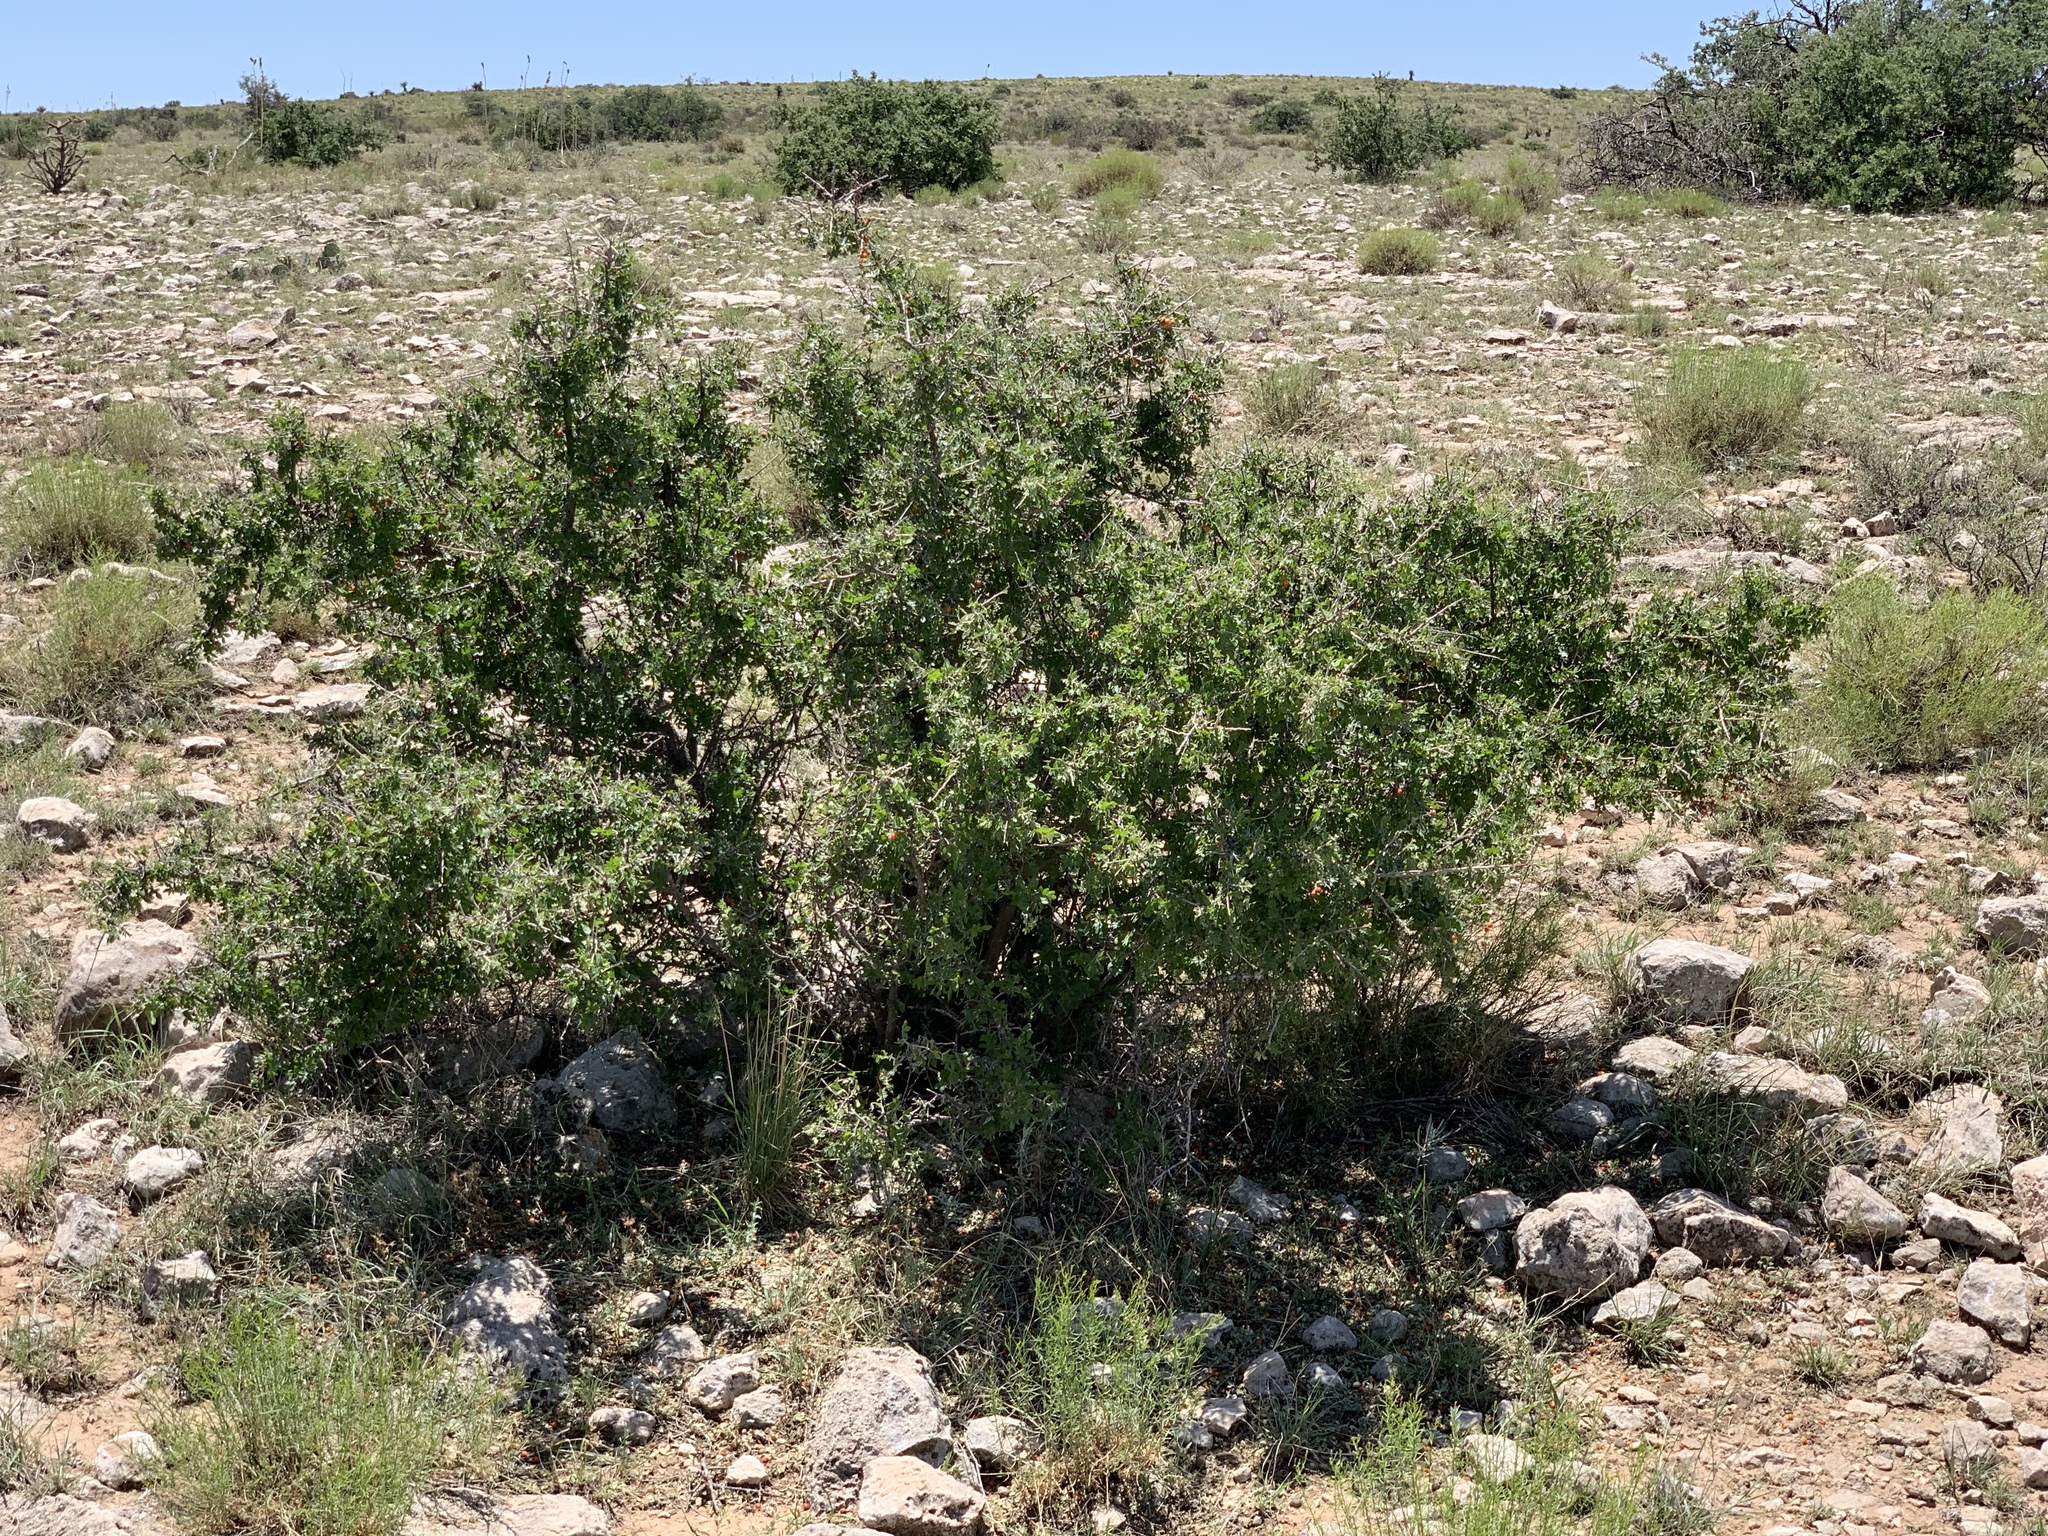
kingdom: Plantae
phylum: Tracheophyta
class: Magnoliopsida
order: Sapindales
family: Anacardiaceae
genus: Rhus
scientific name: Rhus microphylla
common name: Desert sumac
